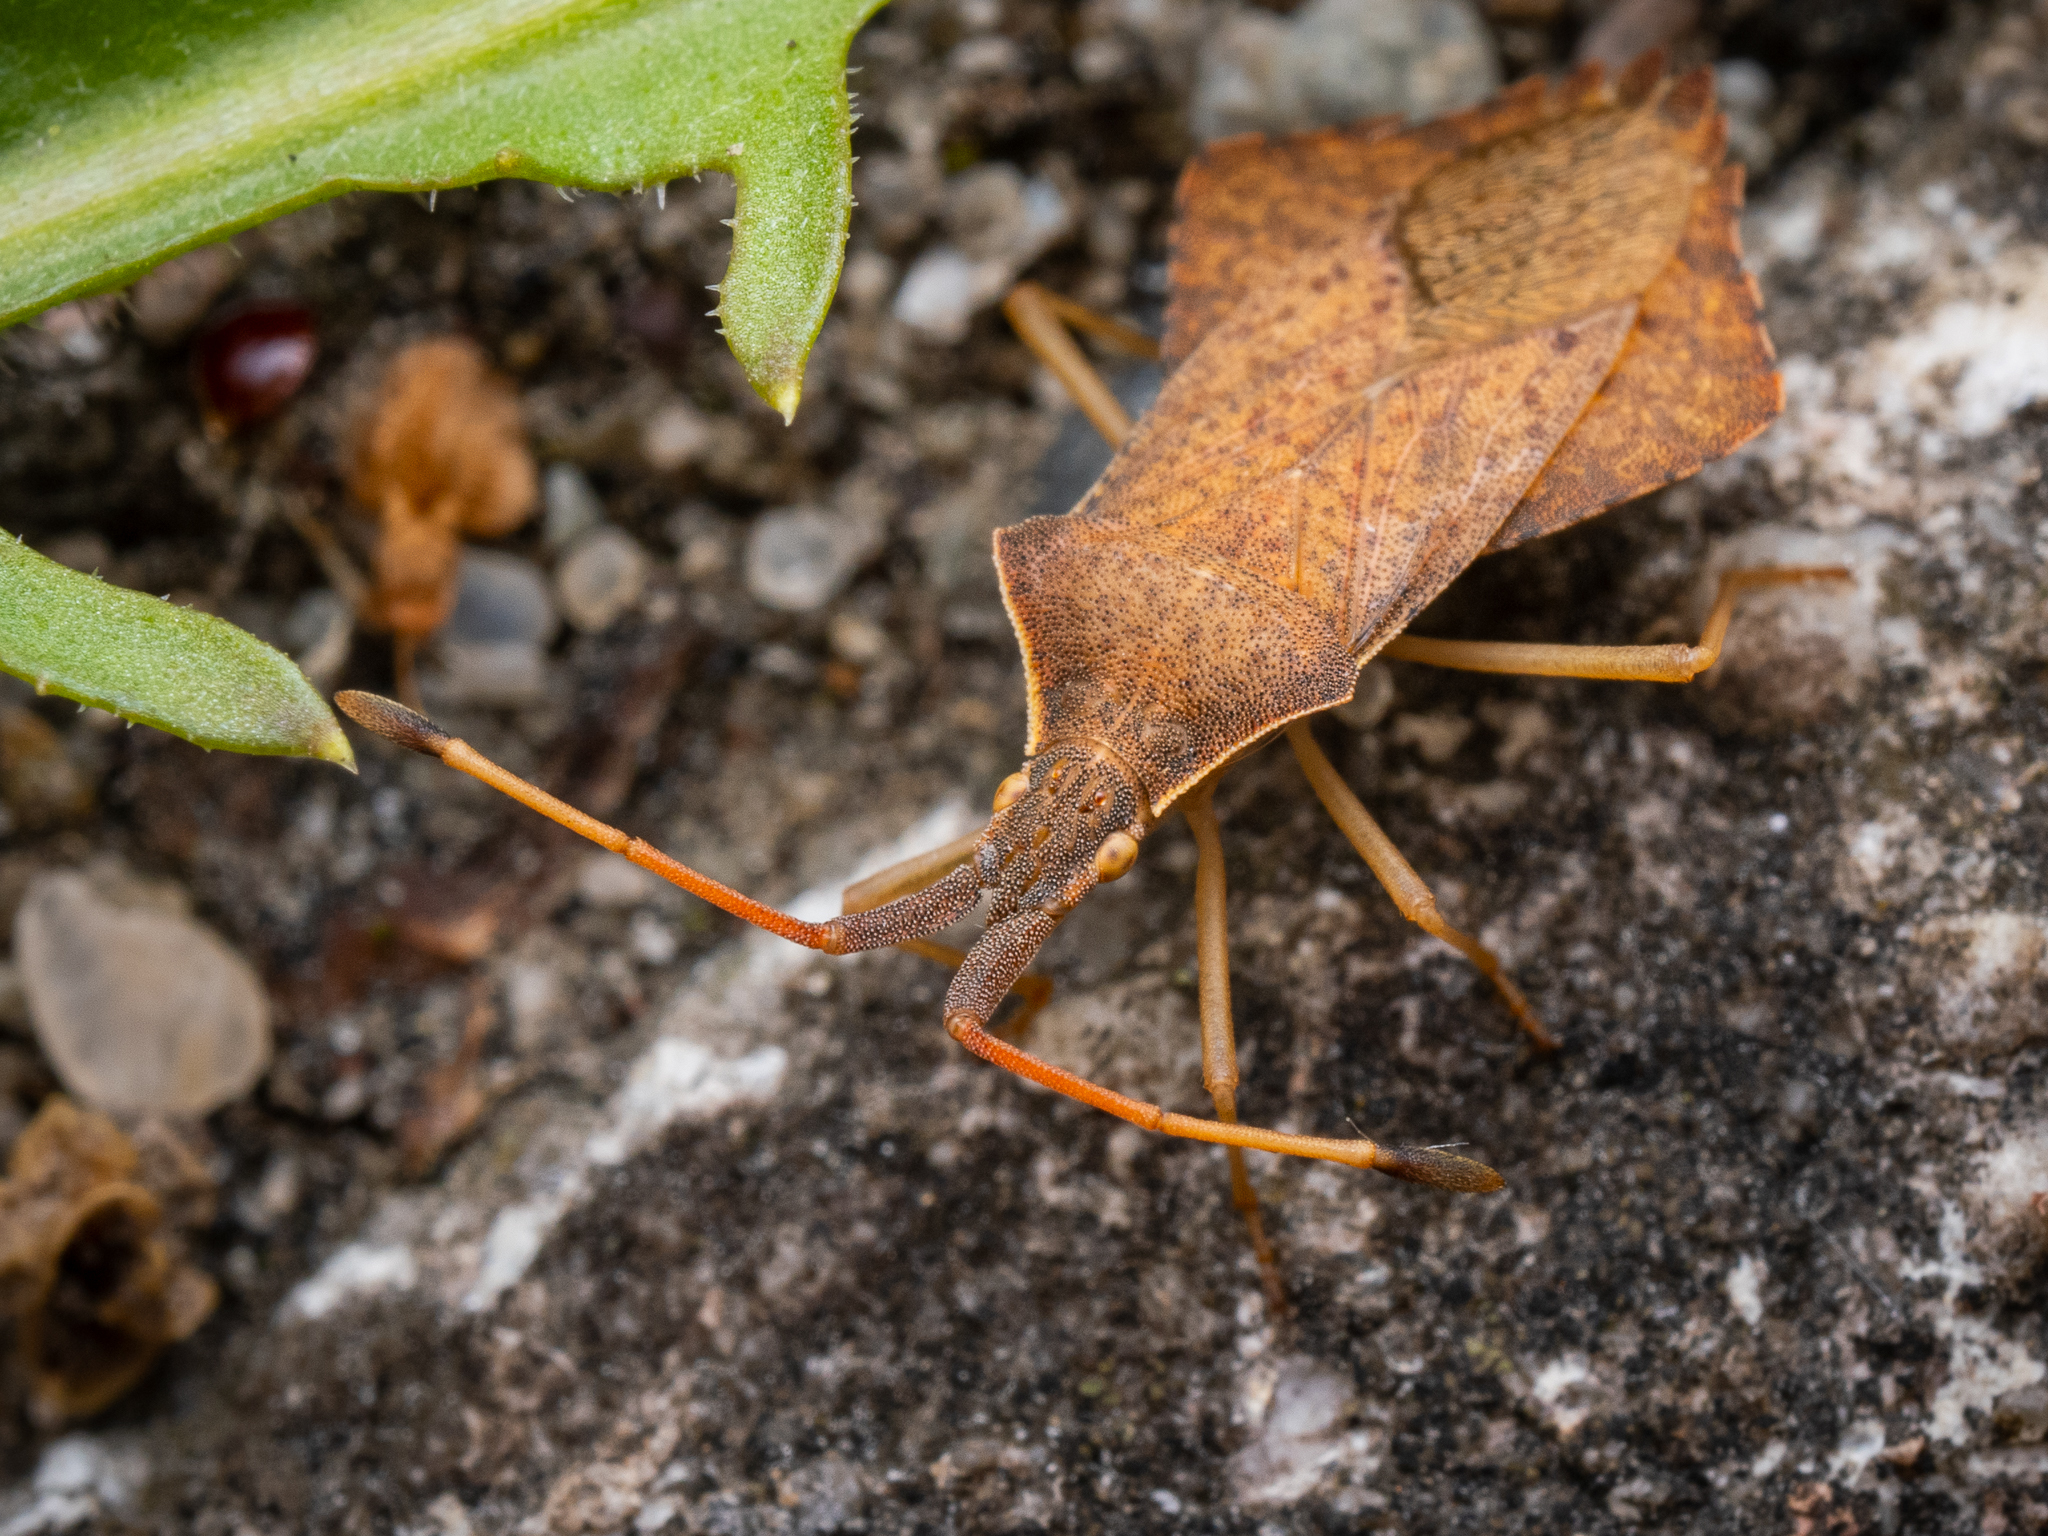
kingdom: Animalia
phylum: Arthropoda
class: Insecta
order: Hemiptera
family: Coreidae
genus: Syromastus
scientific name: Syromastus rhombeus
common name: Rhombic leatherbug
